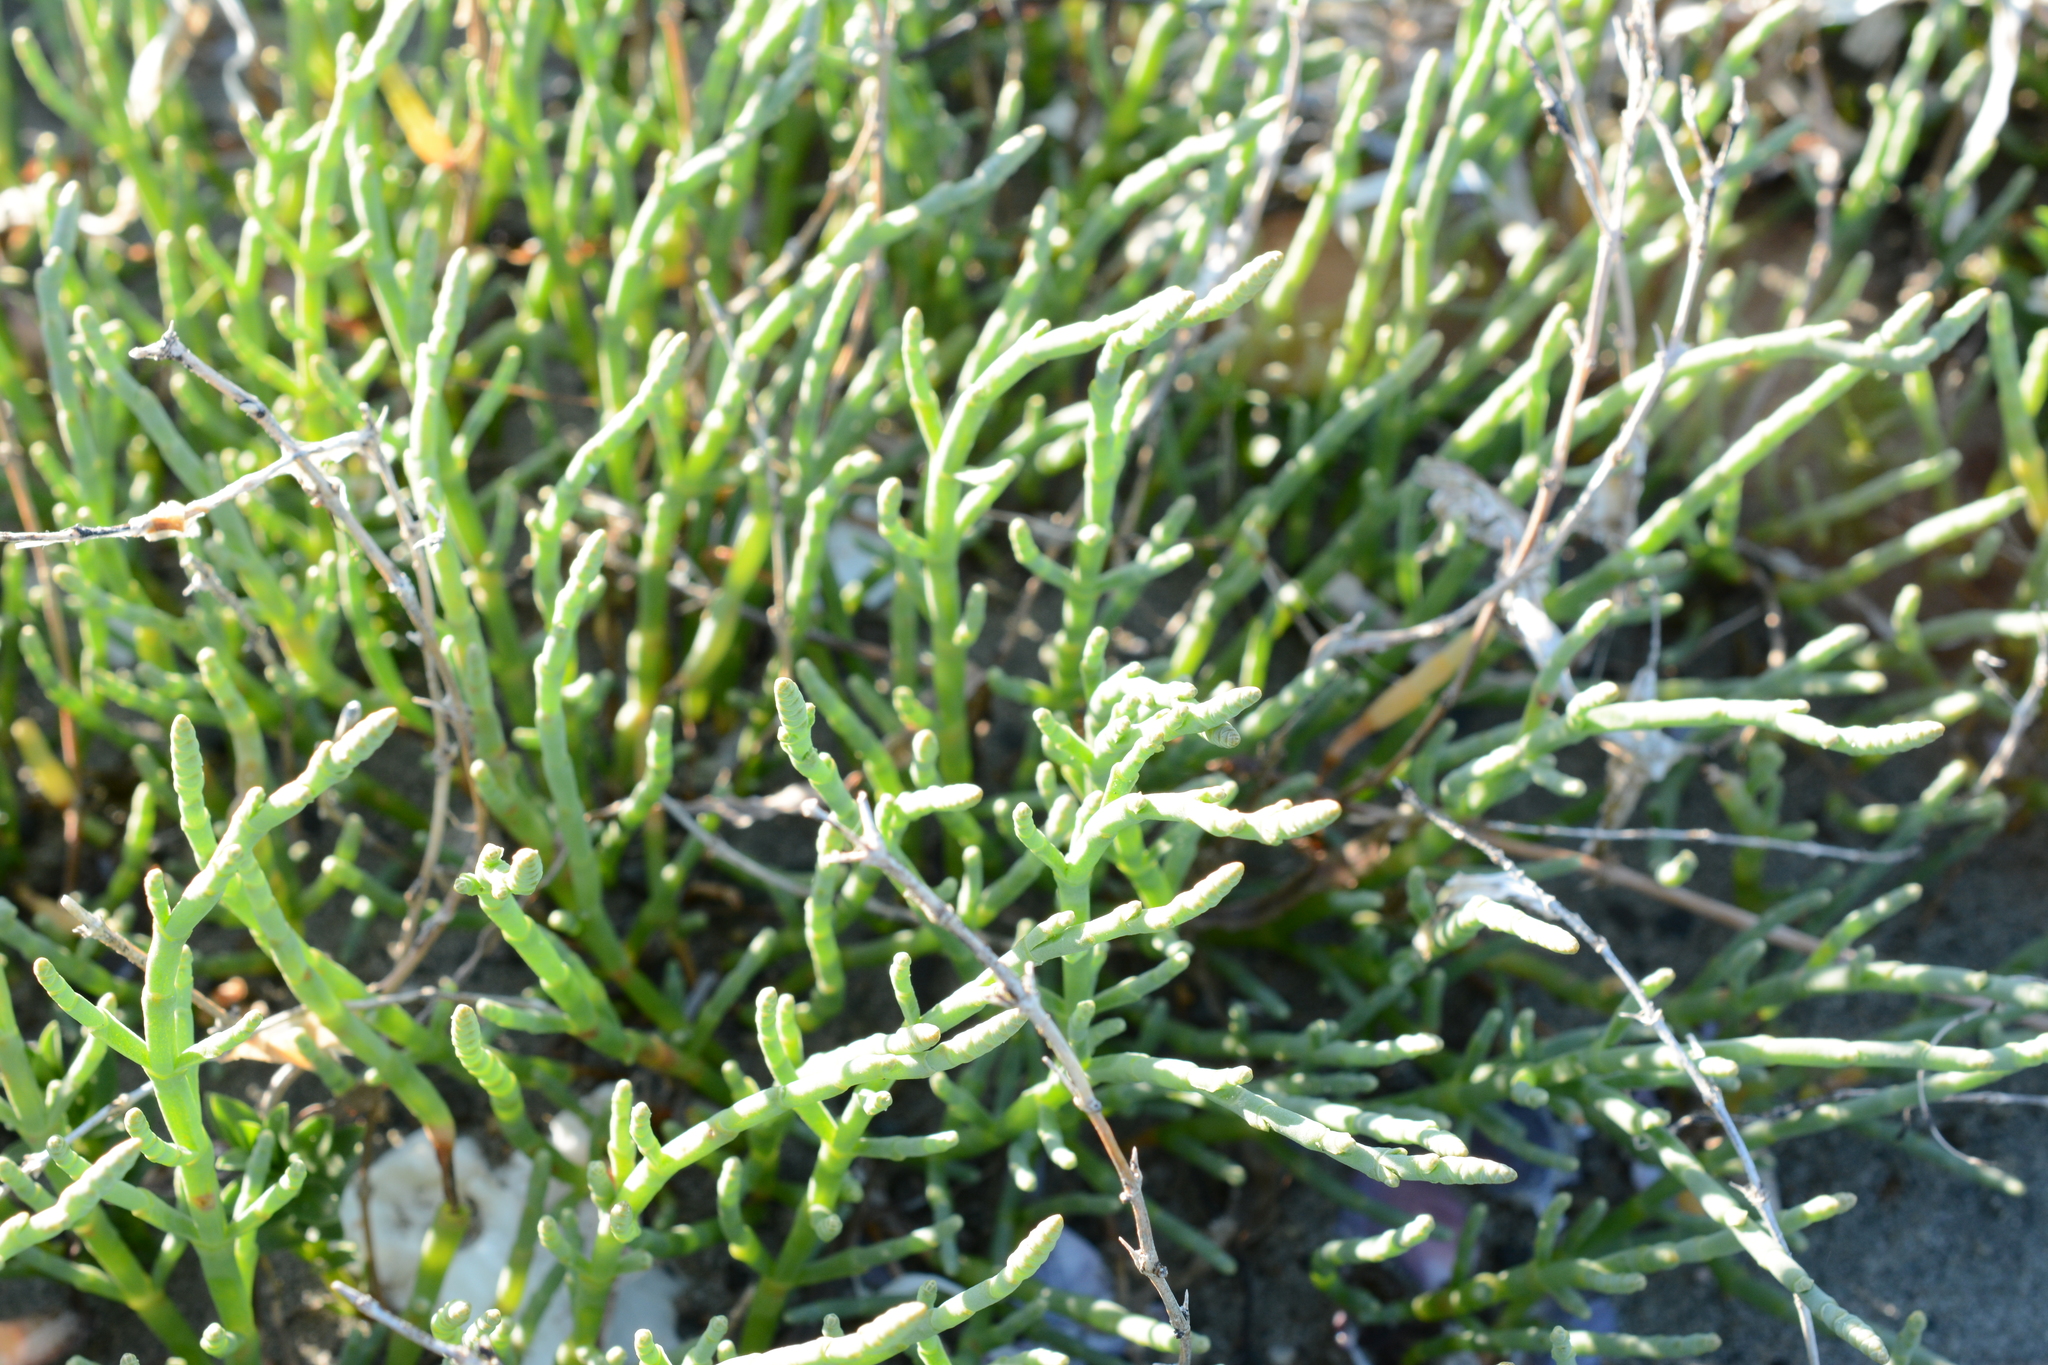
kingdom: Plantae
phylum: Tracheophyta
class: Magnoliopsida
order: Caryophyllales
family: Amaranthaceae
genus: Salicornia
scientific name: Salicornia pacifica
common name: Pacific glasswort
